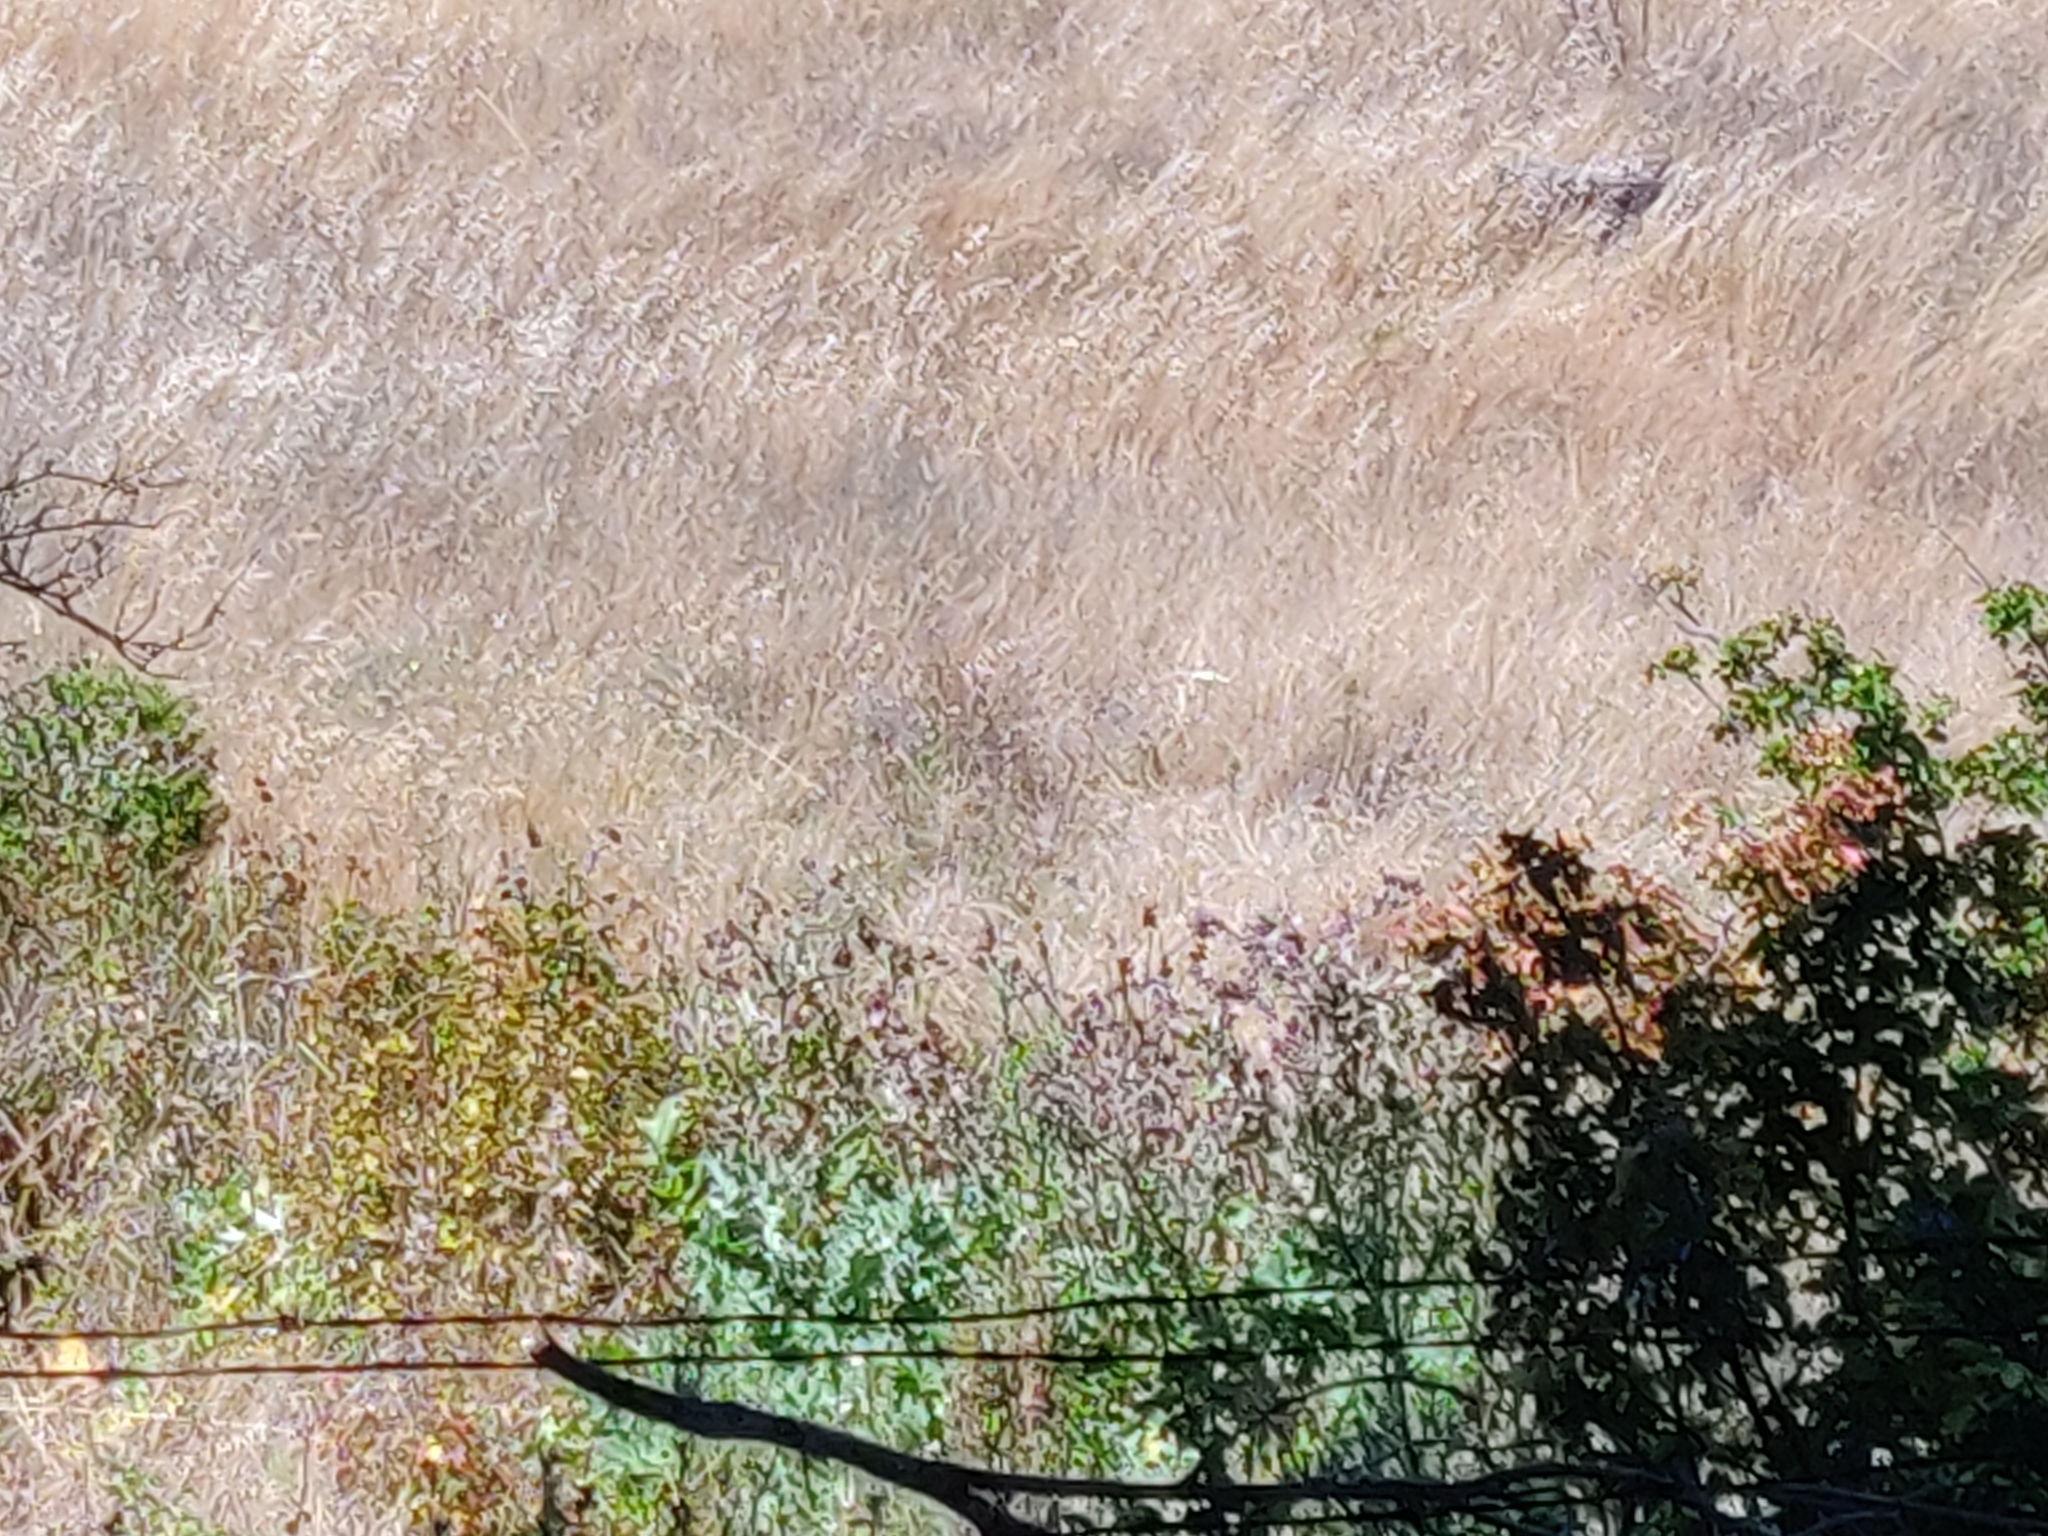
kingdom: Plantae
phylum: Tracheophyta
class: Magnoliopsida
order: Asterales
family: Asteraceae
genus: Cirsium
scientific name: Cirsium fontinale
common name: Fountain thistle
